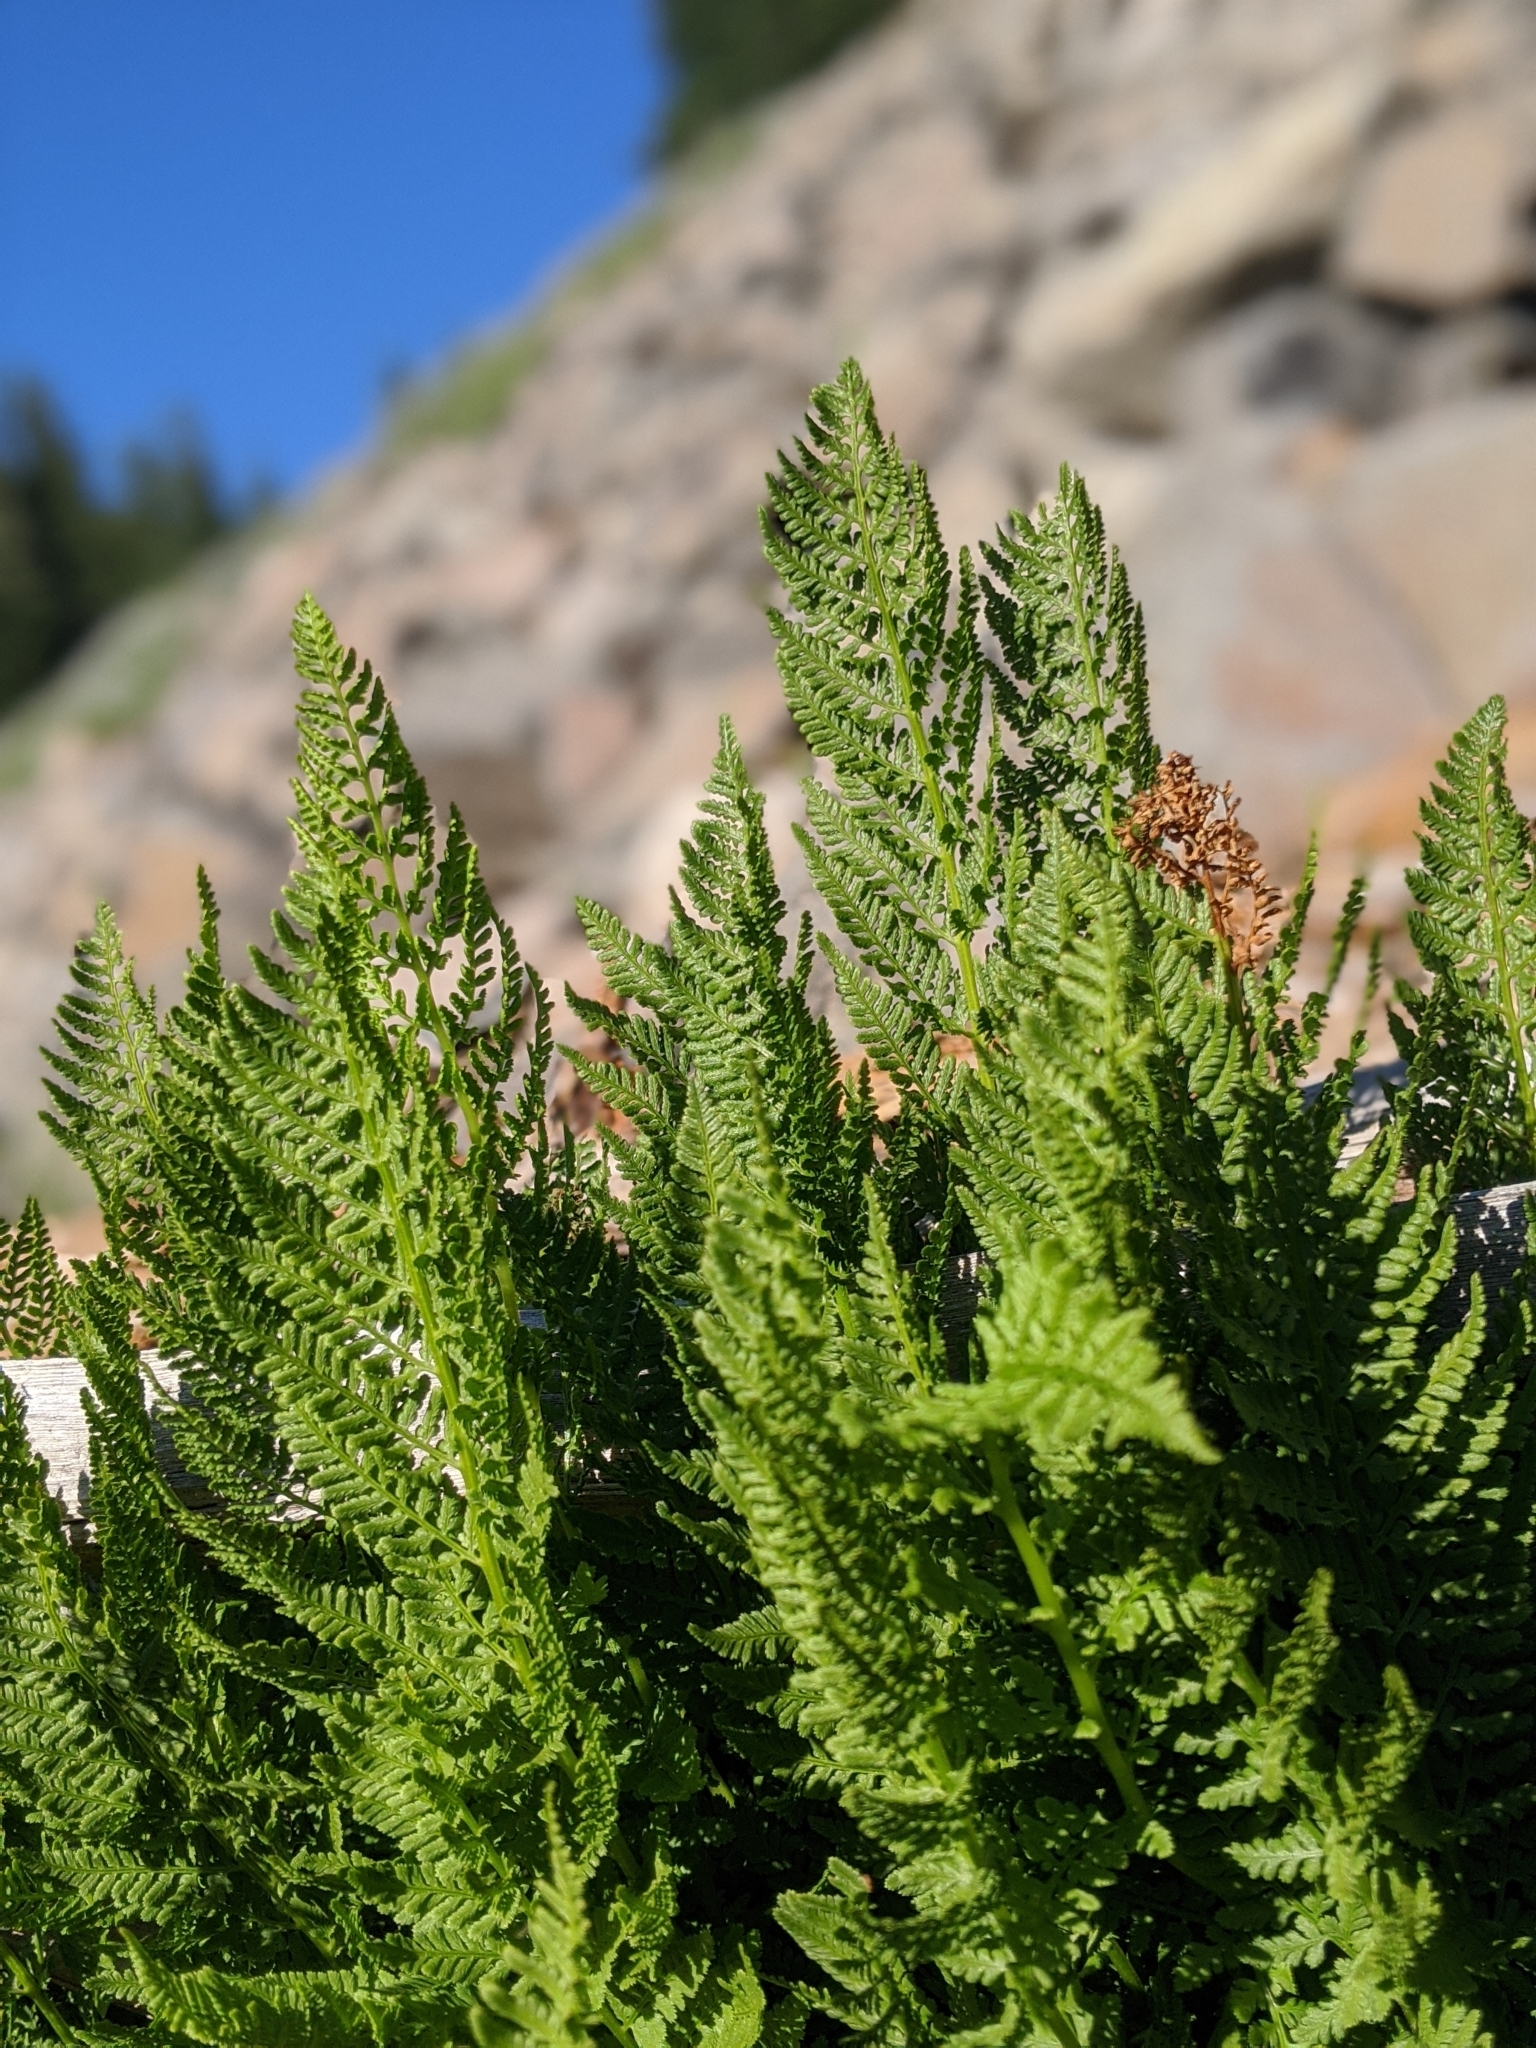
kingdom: Plantae
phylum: Tracheophyta
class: Polypodiopsida
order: Polypodiales
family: Athyriaceae
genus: Athyrium
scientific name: Athyrium americanum
